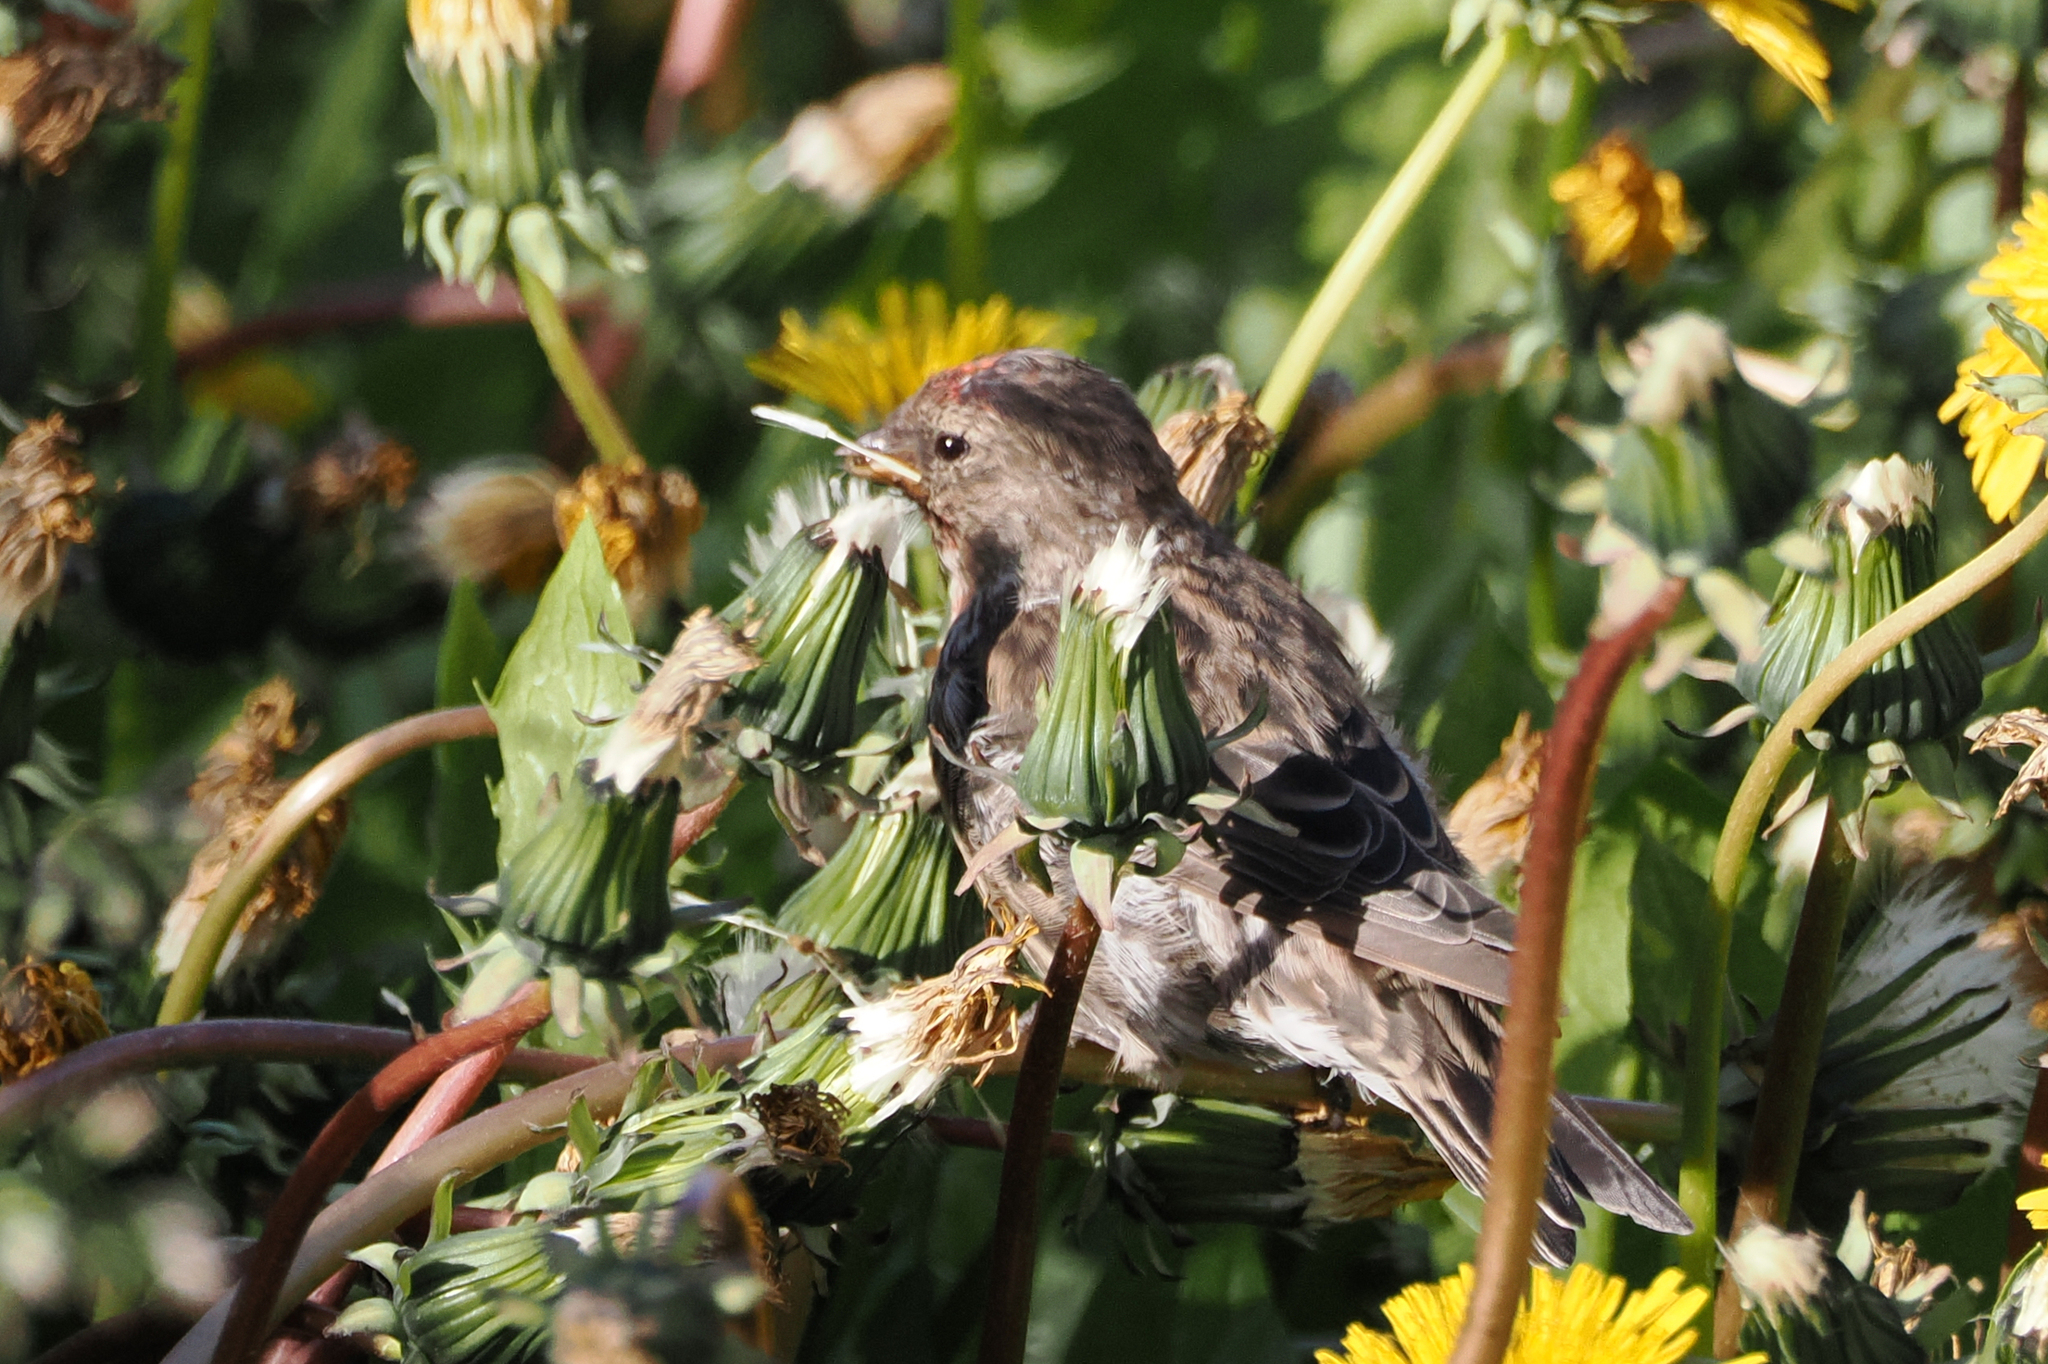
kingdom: Animalia
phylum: Chordata
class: Aves
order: Passeriformes
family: Fringillidae
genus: Acanthis
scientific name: Acanthis flammea
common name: Common redpoll
